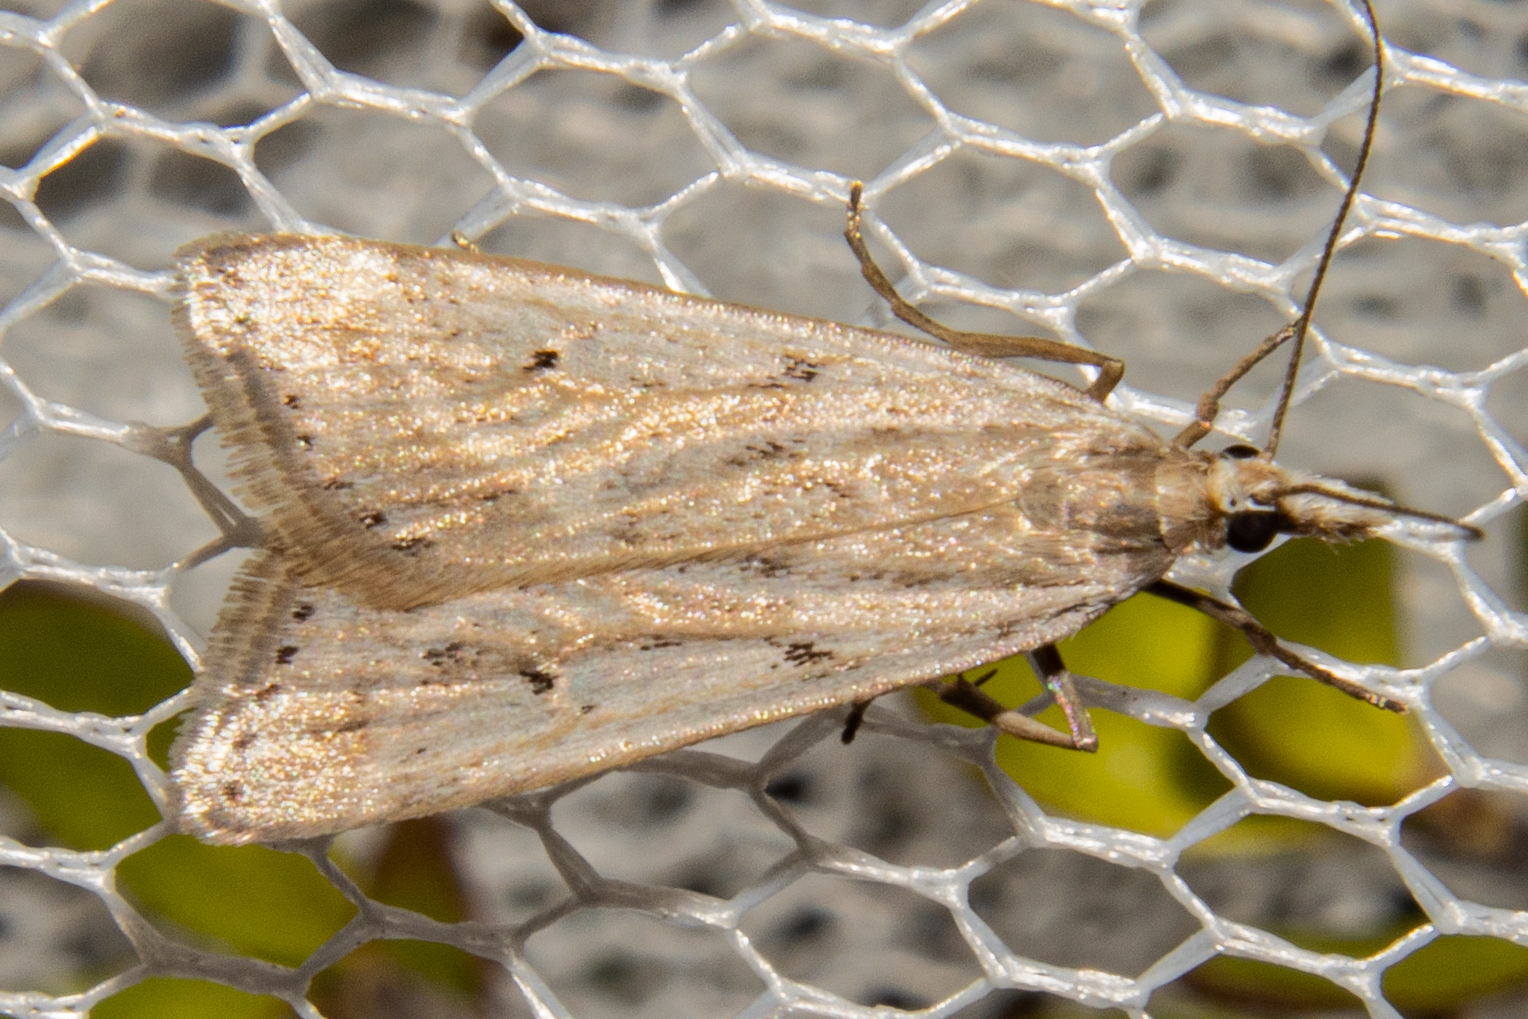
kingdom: Animalia
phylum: Arthropoda
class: Insecta
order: Lepidoptera
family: Crambidae
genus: Eudonia
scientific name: Eudonia deltophora
